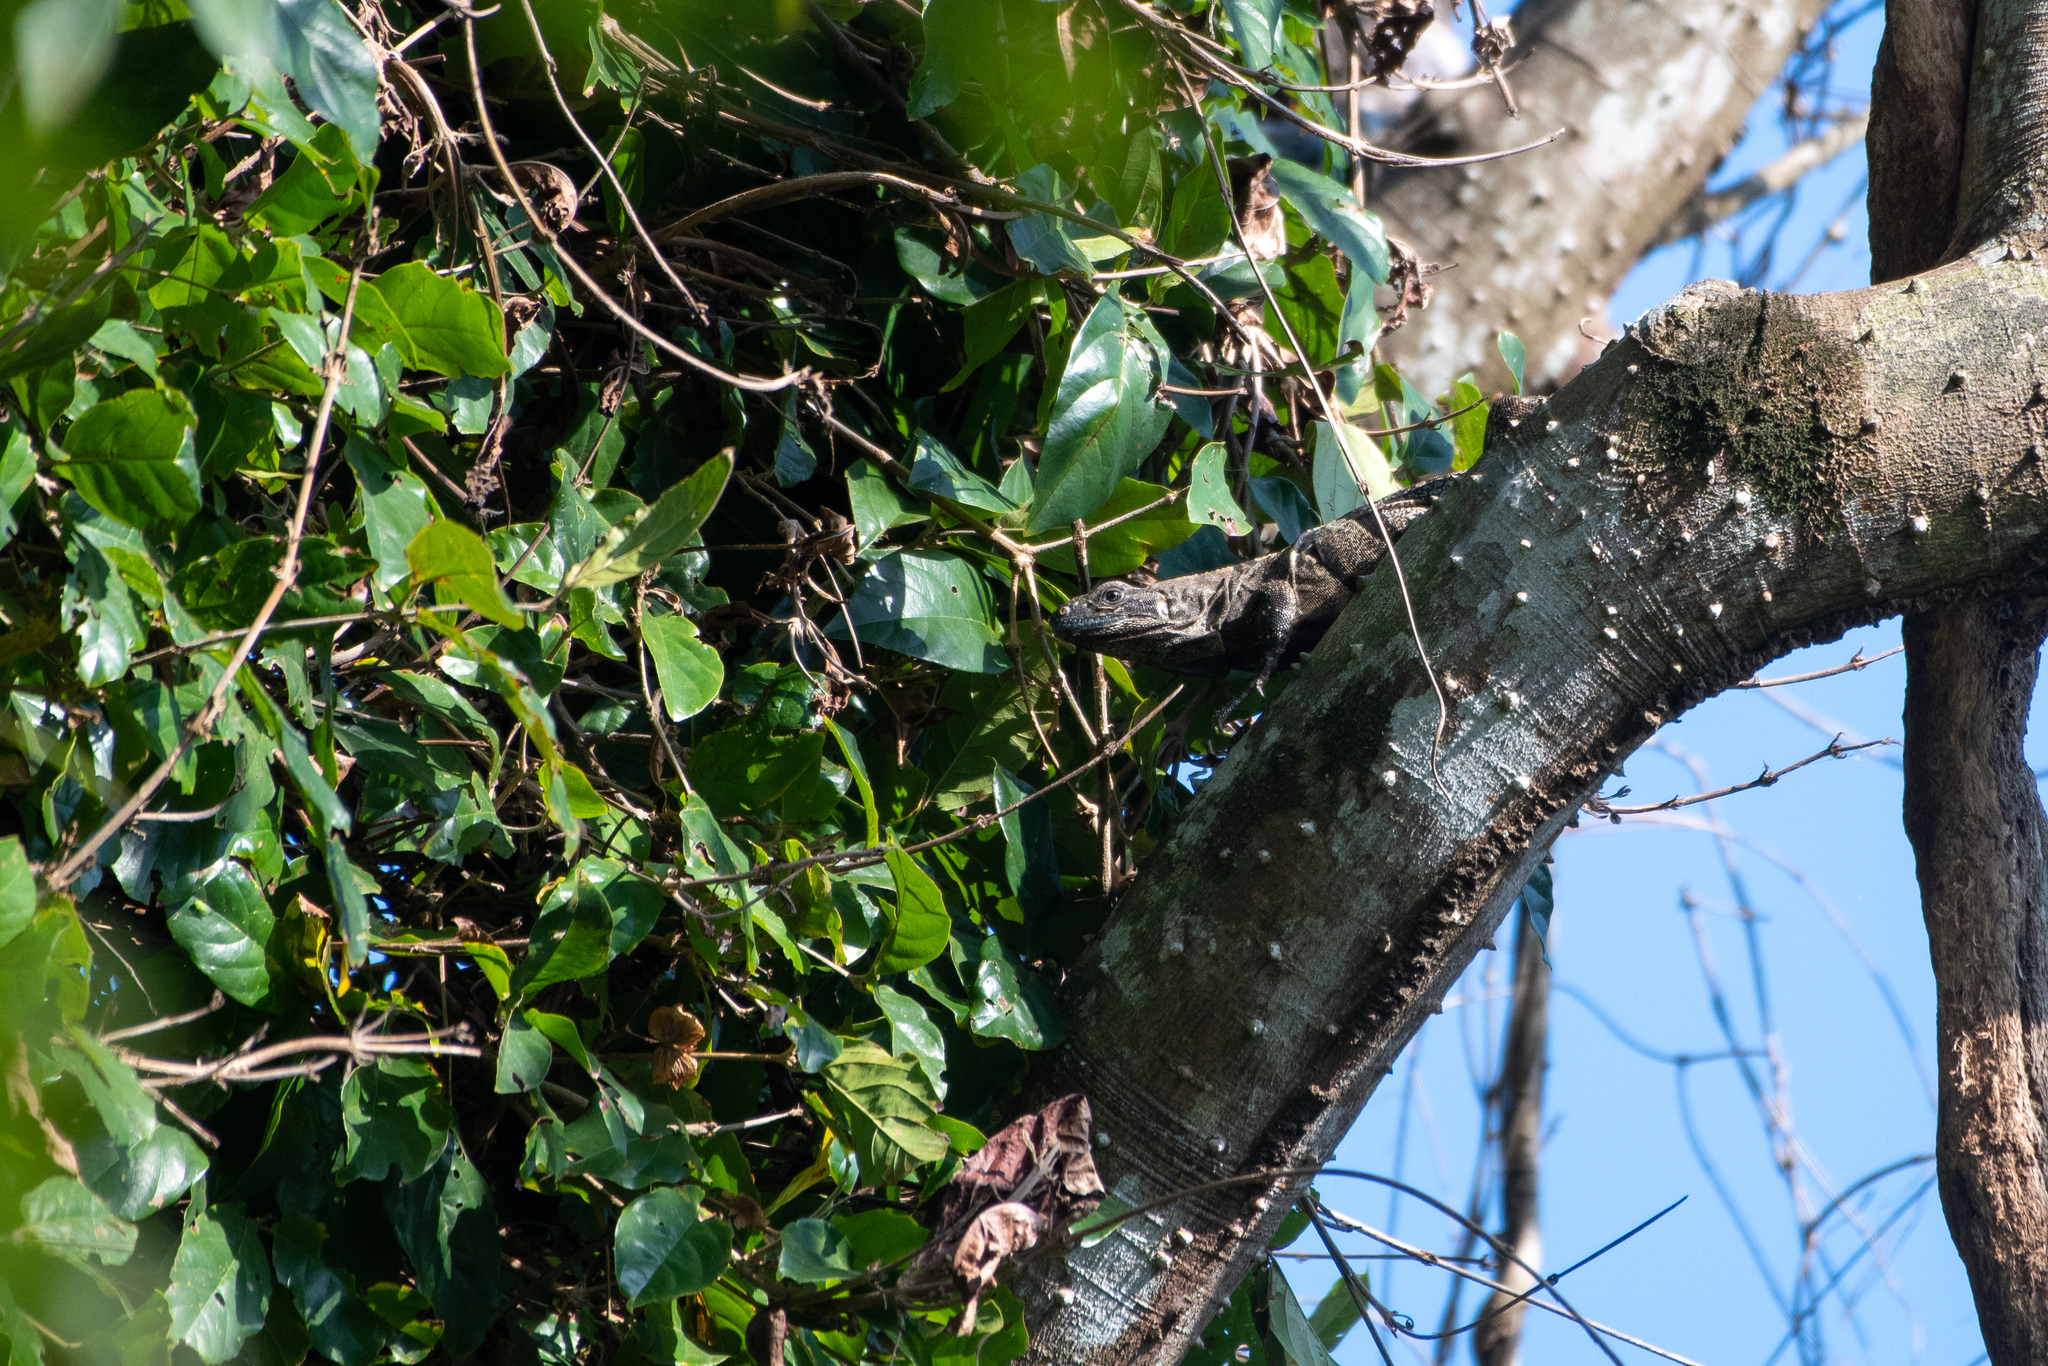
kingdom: Animalia
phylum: Chordata
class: Squamata
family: Iguanidae
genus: Ctenosaura
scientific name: Ctenosaura similis
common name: Black spiny-tailed iguana
